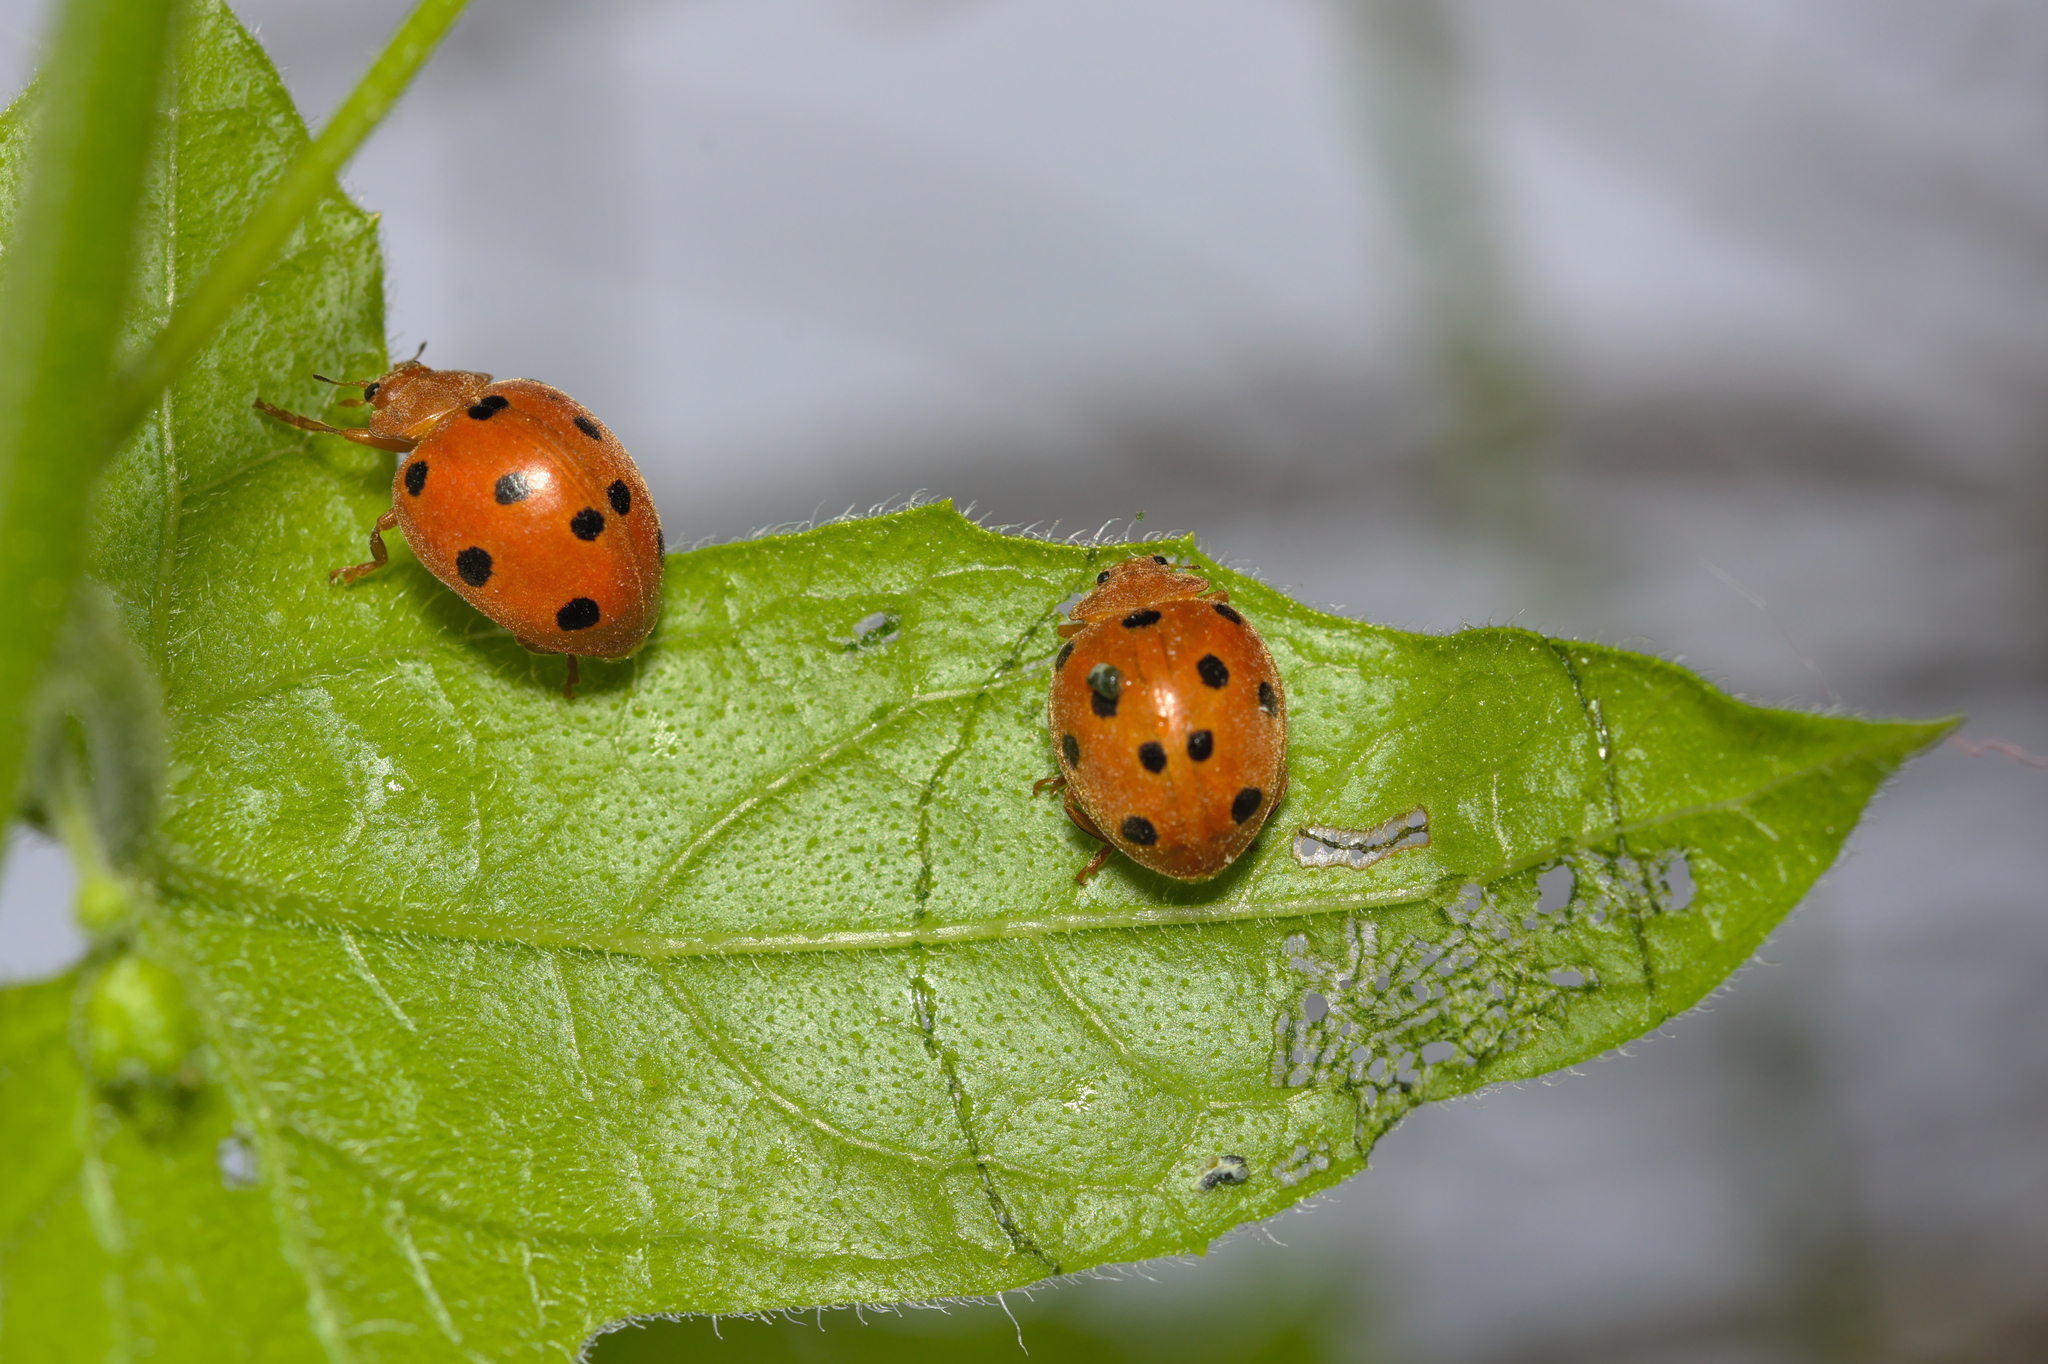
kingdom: Animalia
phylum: Arthropoda
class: Insecta
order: Coleoptera
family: Coccinellidae
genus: Henosepilachna
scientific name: Henosepilachna argus
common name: Bryony ladybird
